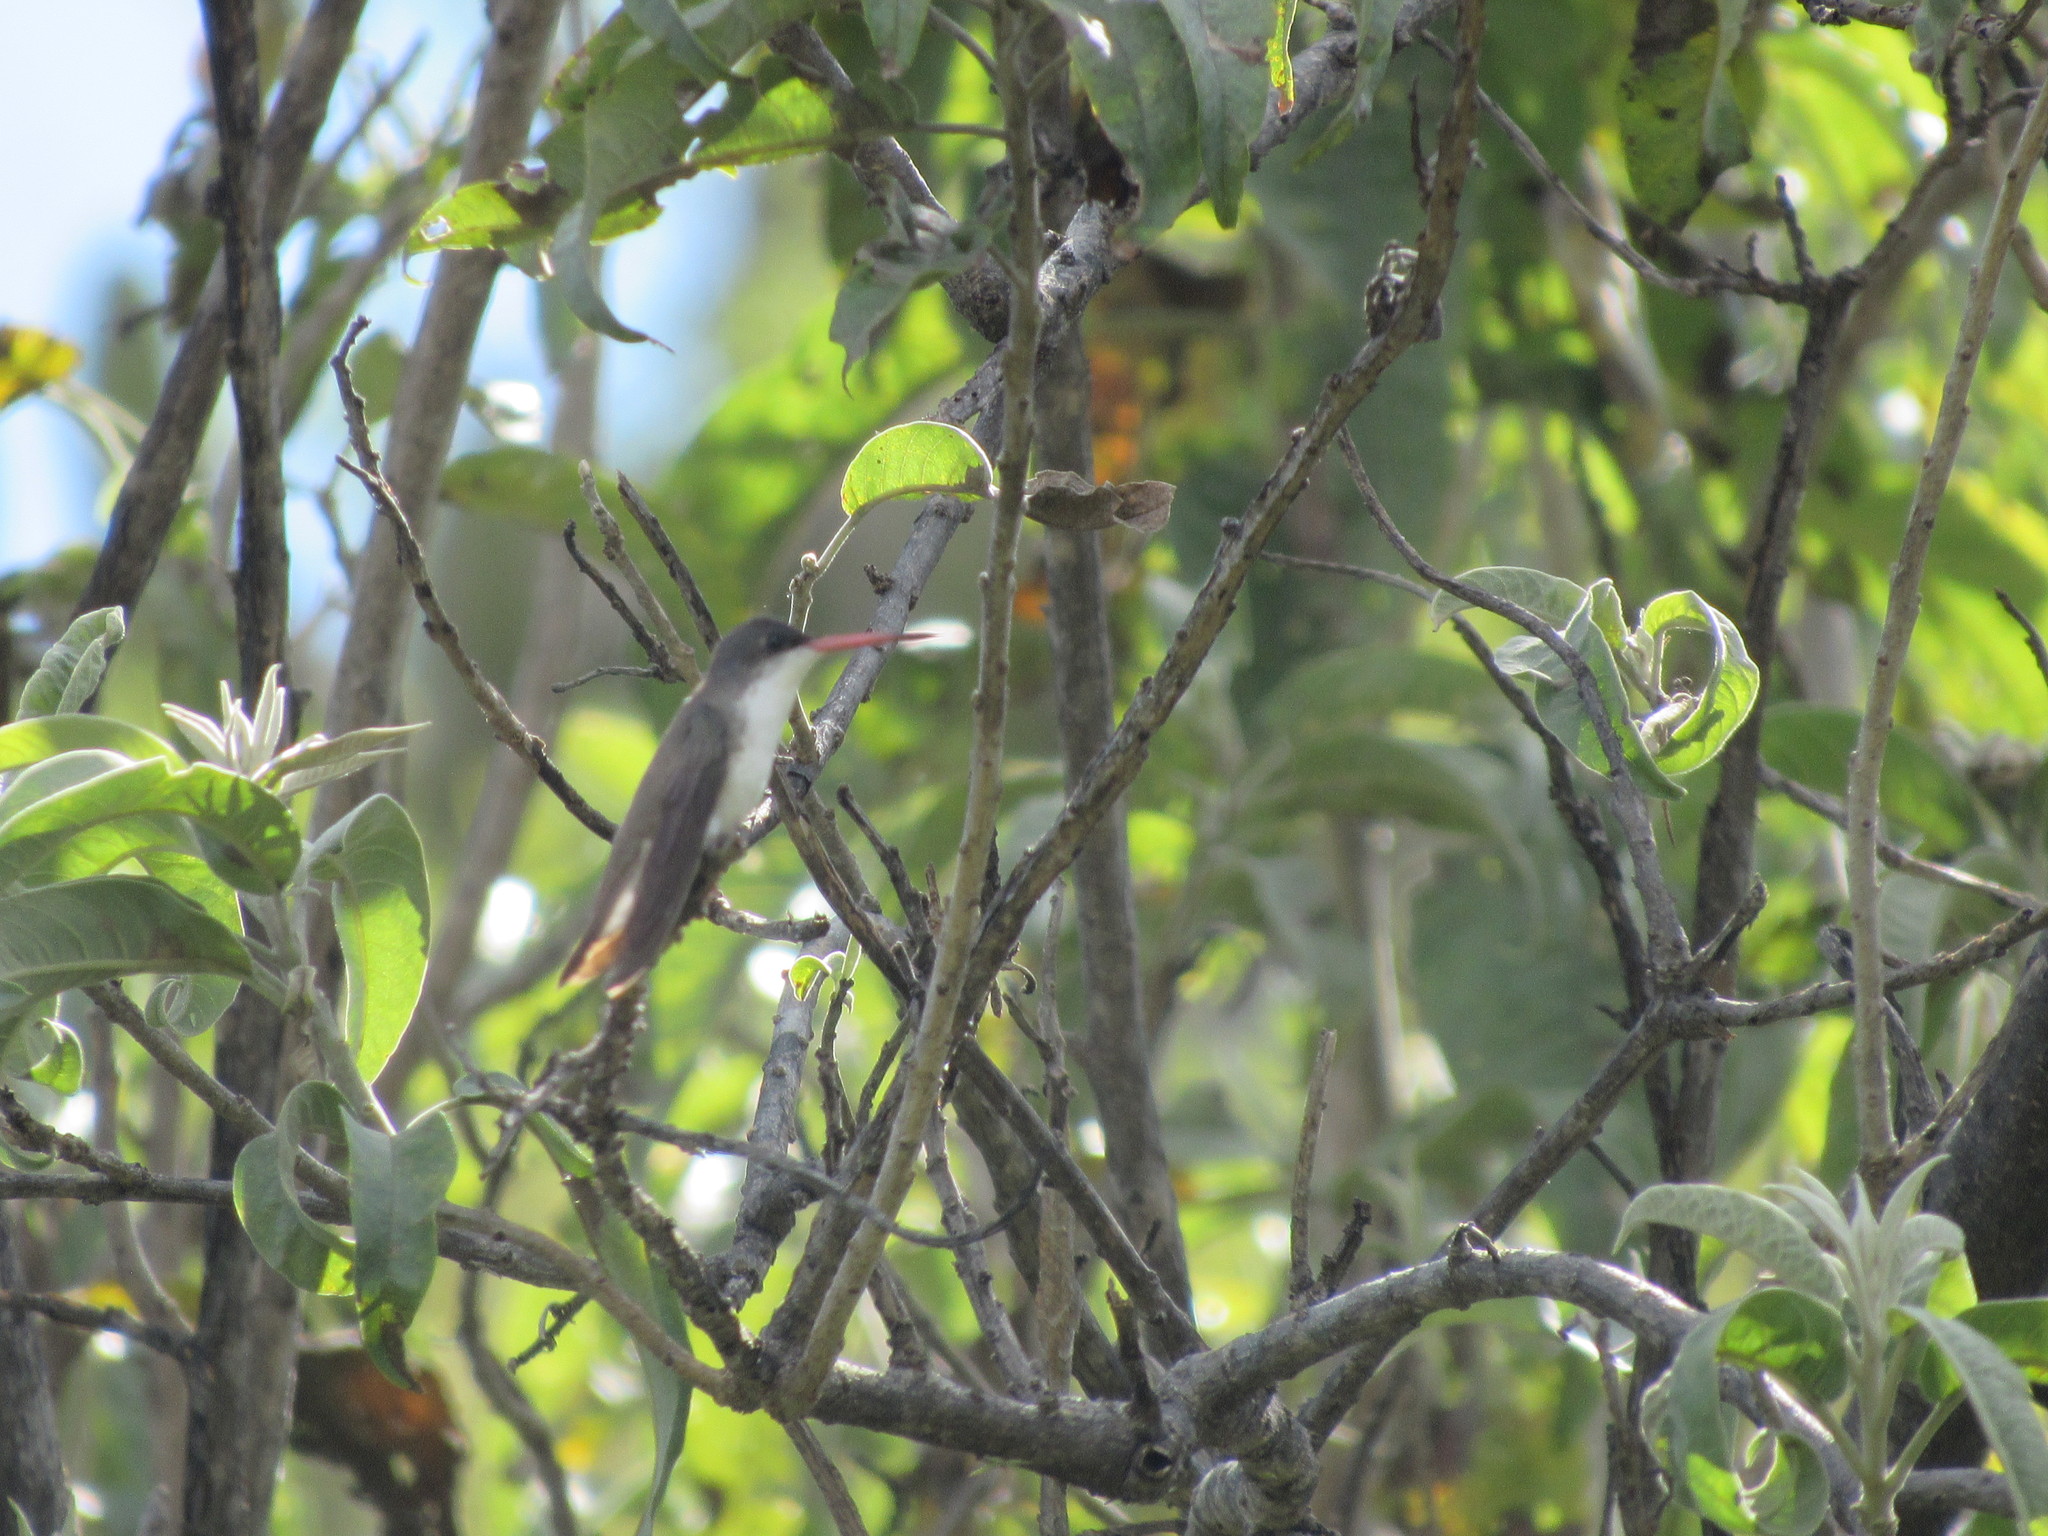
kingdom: Animalia
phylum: Chordata
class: Aves
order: Apodiformes
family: Trochilidae
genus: Leucolia
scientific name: Leucolia violiceps
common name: Violet-crowned hummingbird
